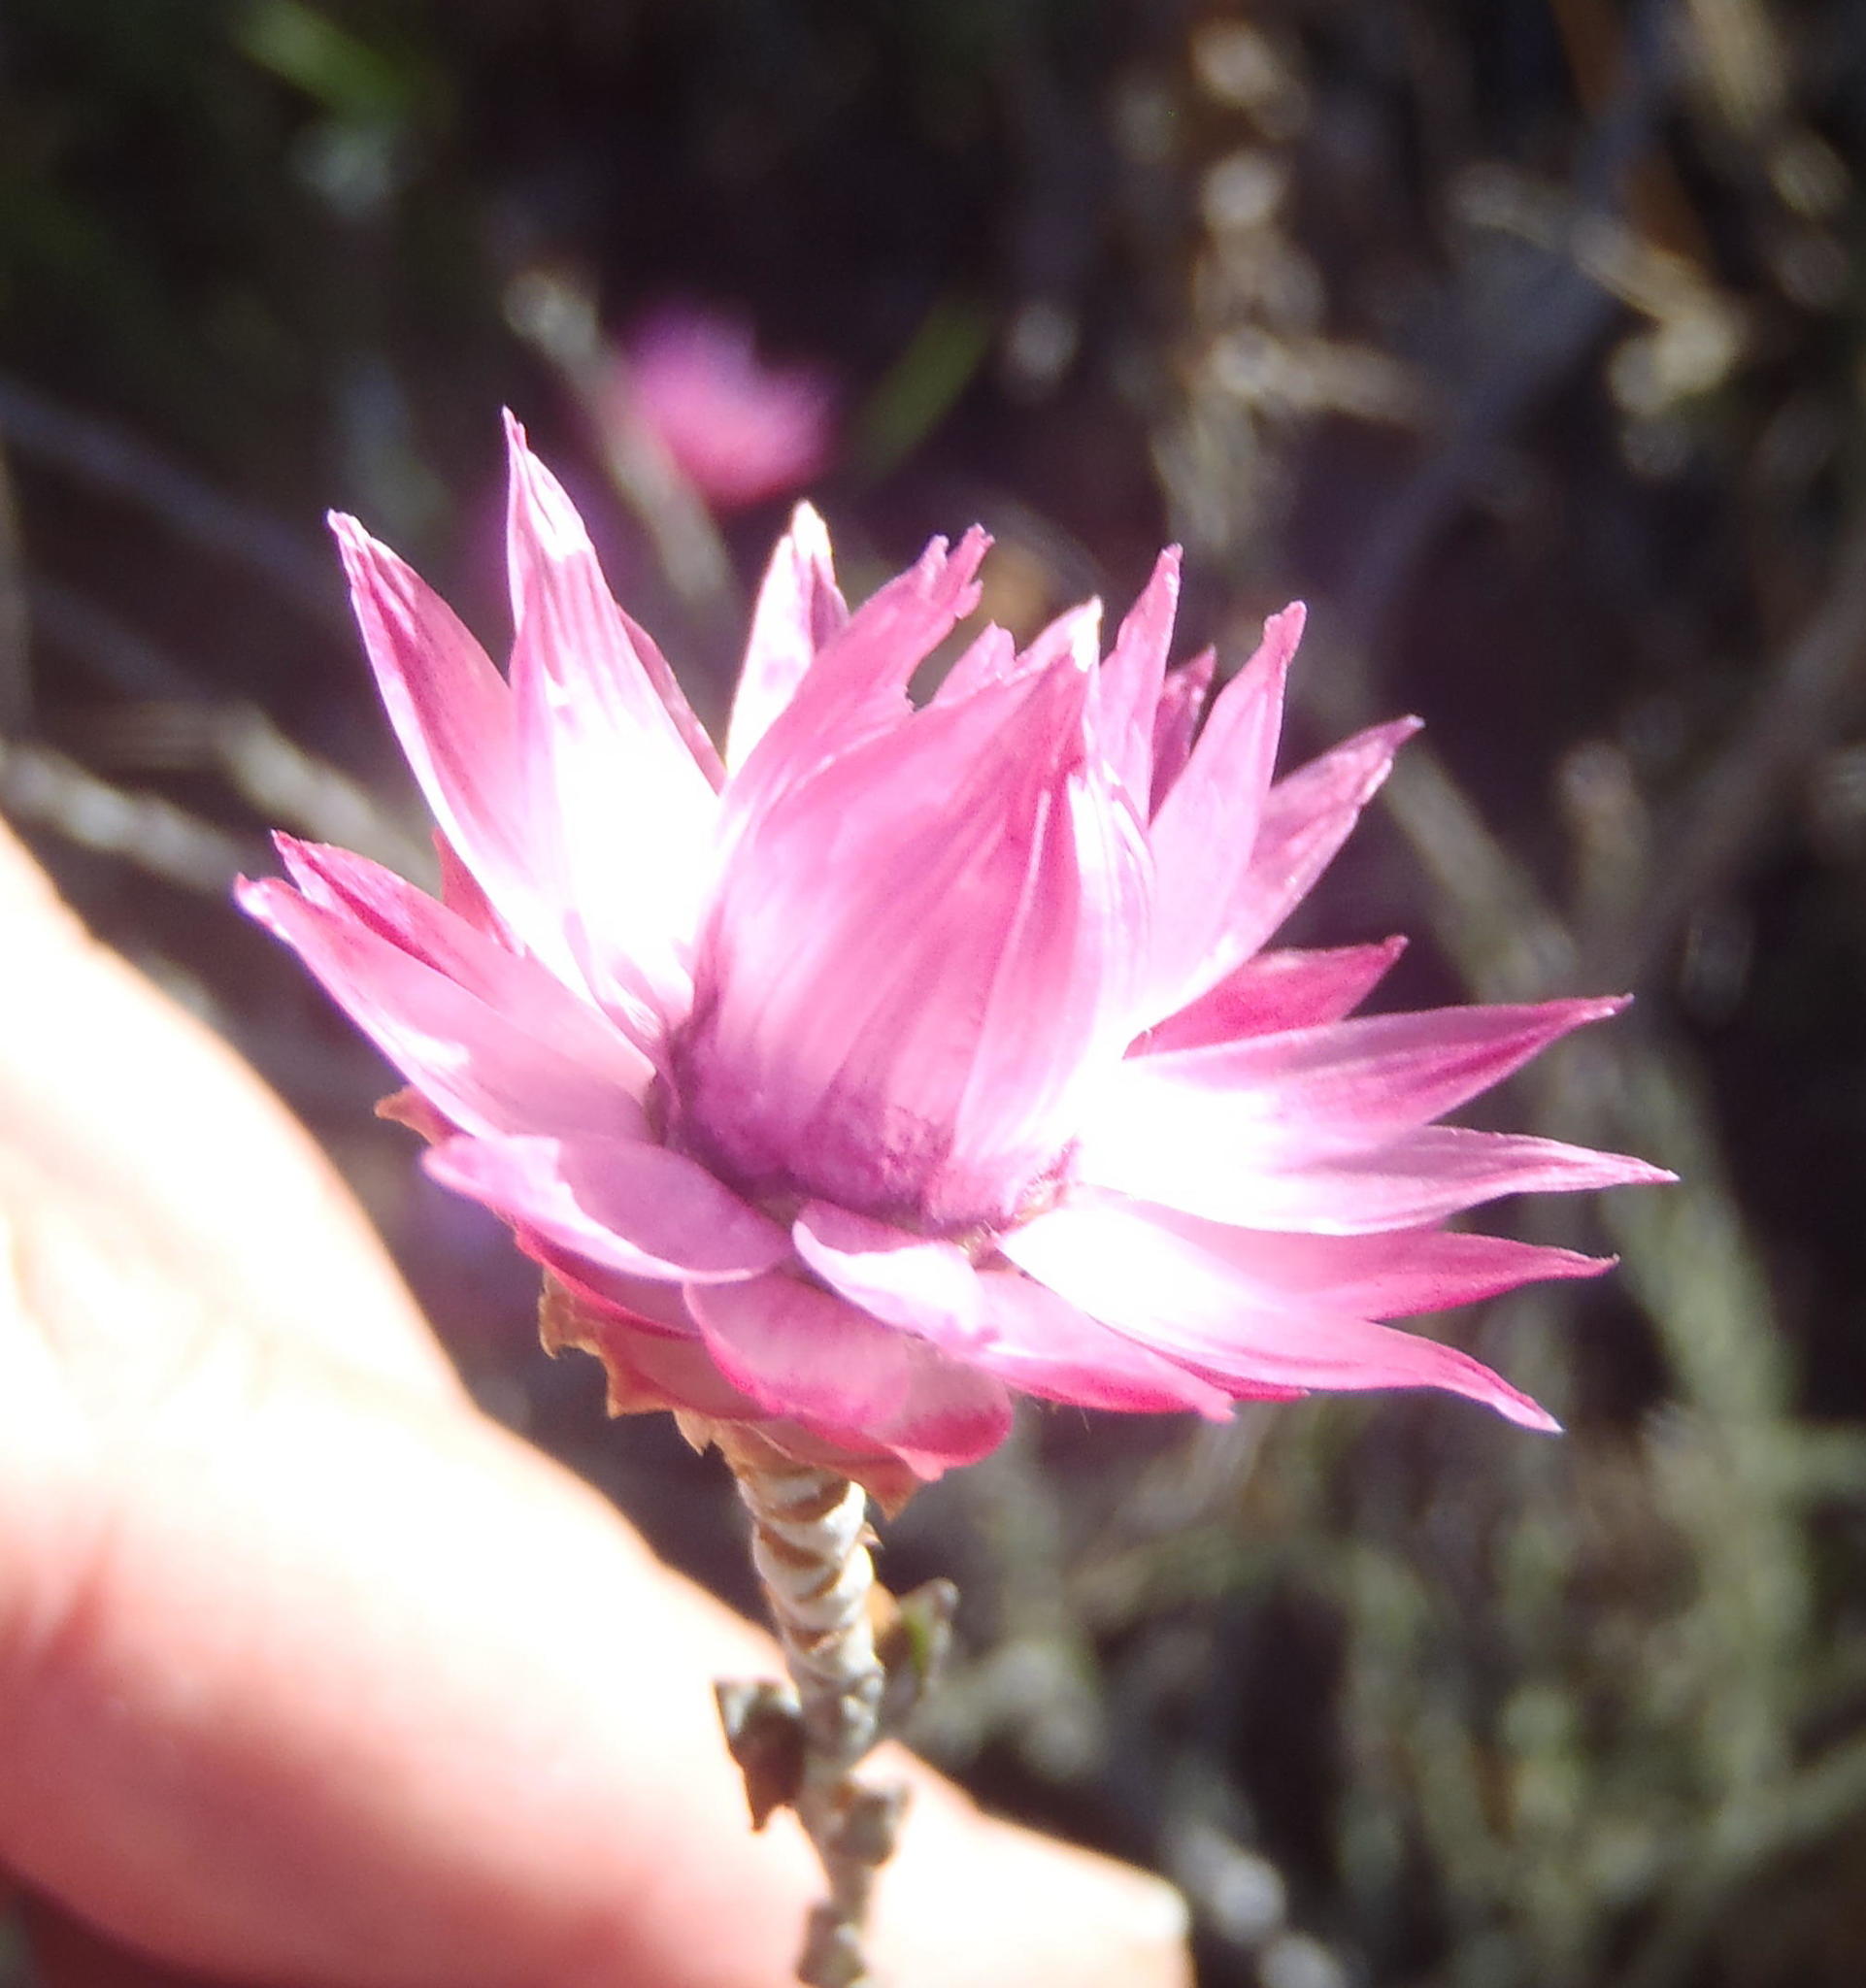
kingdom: Plantae
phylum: Tracheophyta
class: Magnoliopsida
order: Asterales
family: Asteraceae
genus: Syncarpha
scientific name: Syncarpha canescens
